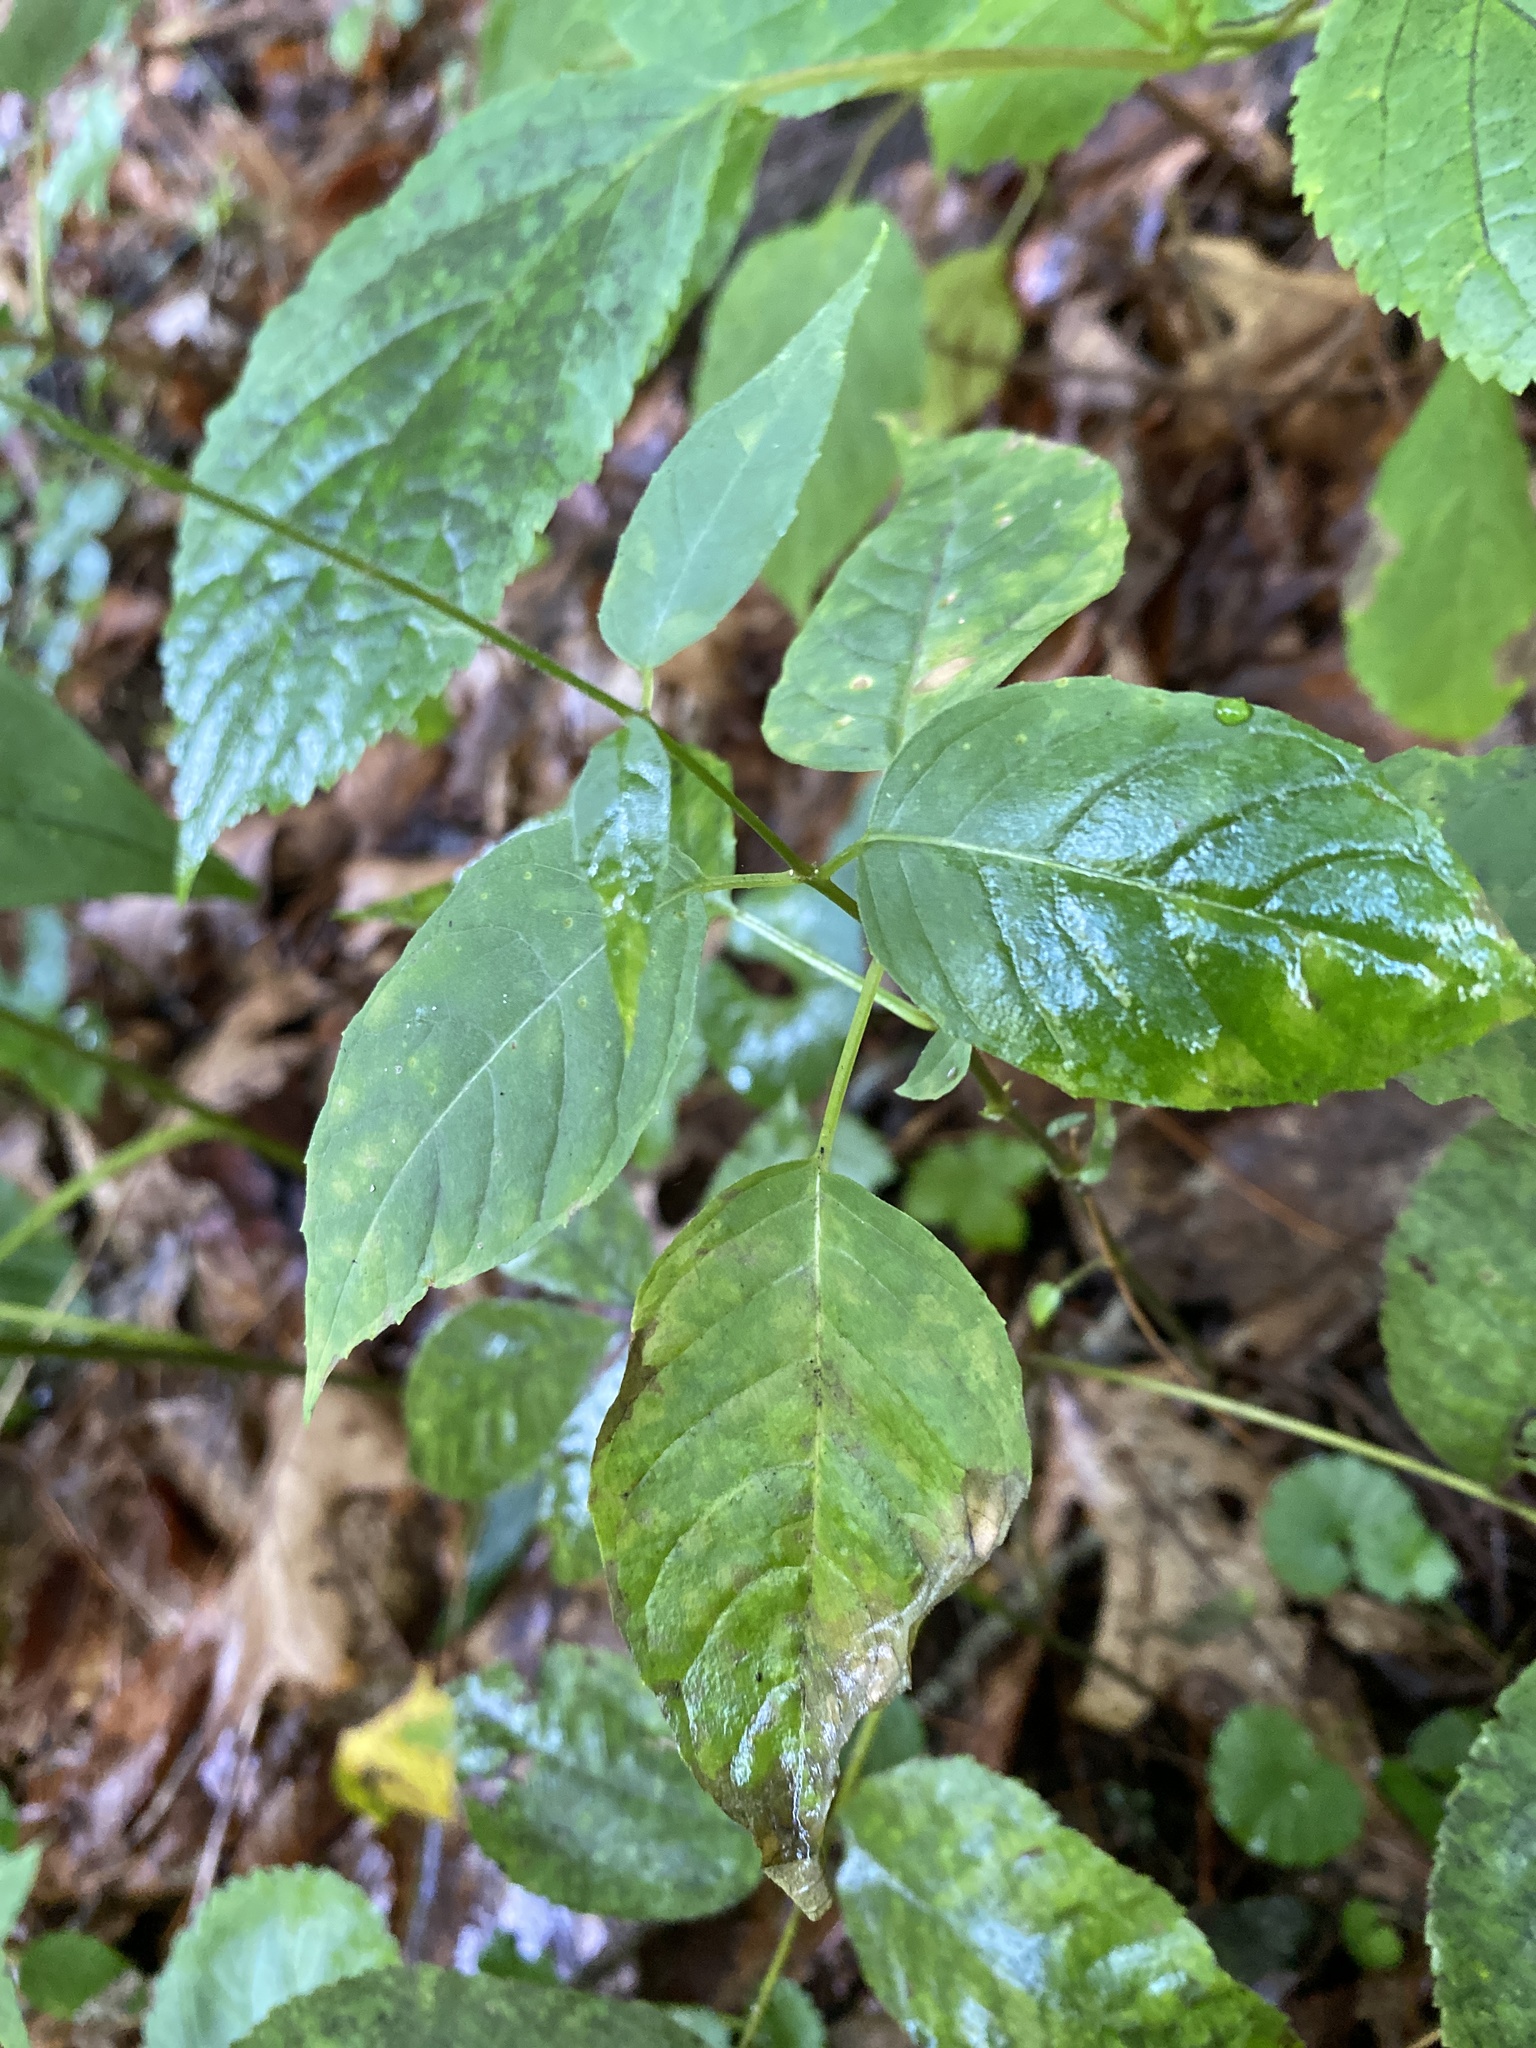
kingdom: Plantae
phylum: Tracheophyta
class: Magnoliopsida
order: Myrtales
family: Onagraceae
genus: Circaea
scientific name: Circaea canadensis
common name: Broad-leaved enchanter's nightshade
